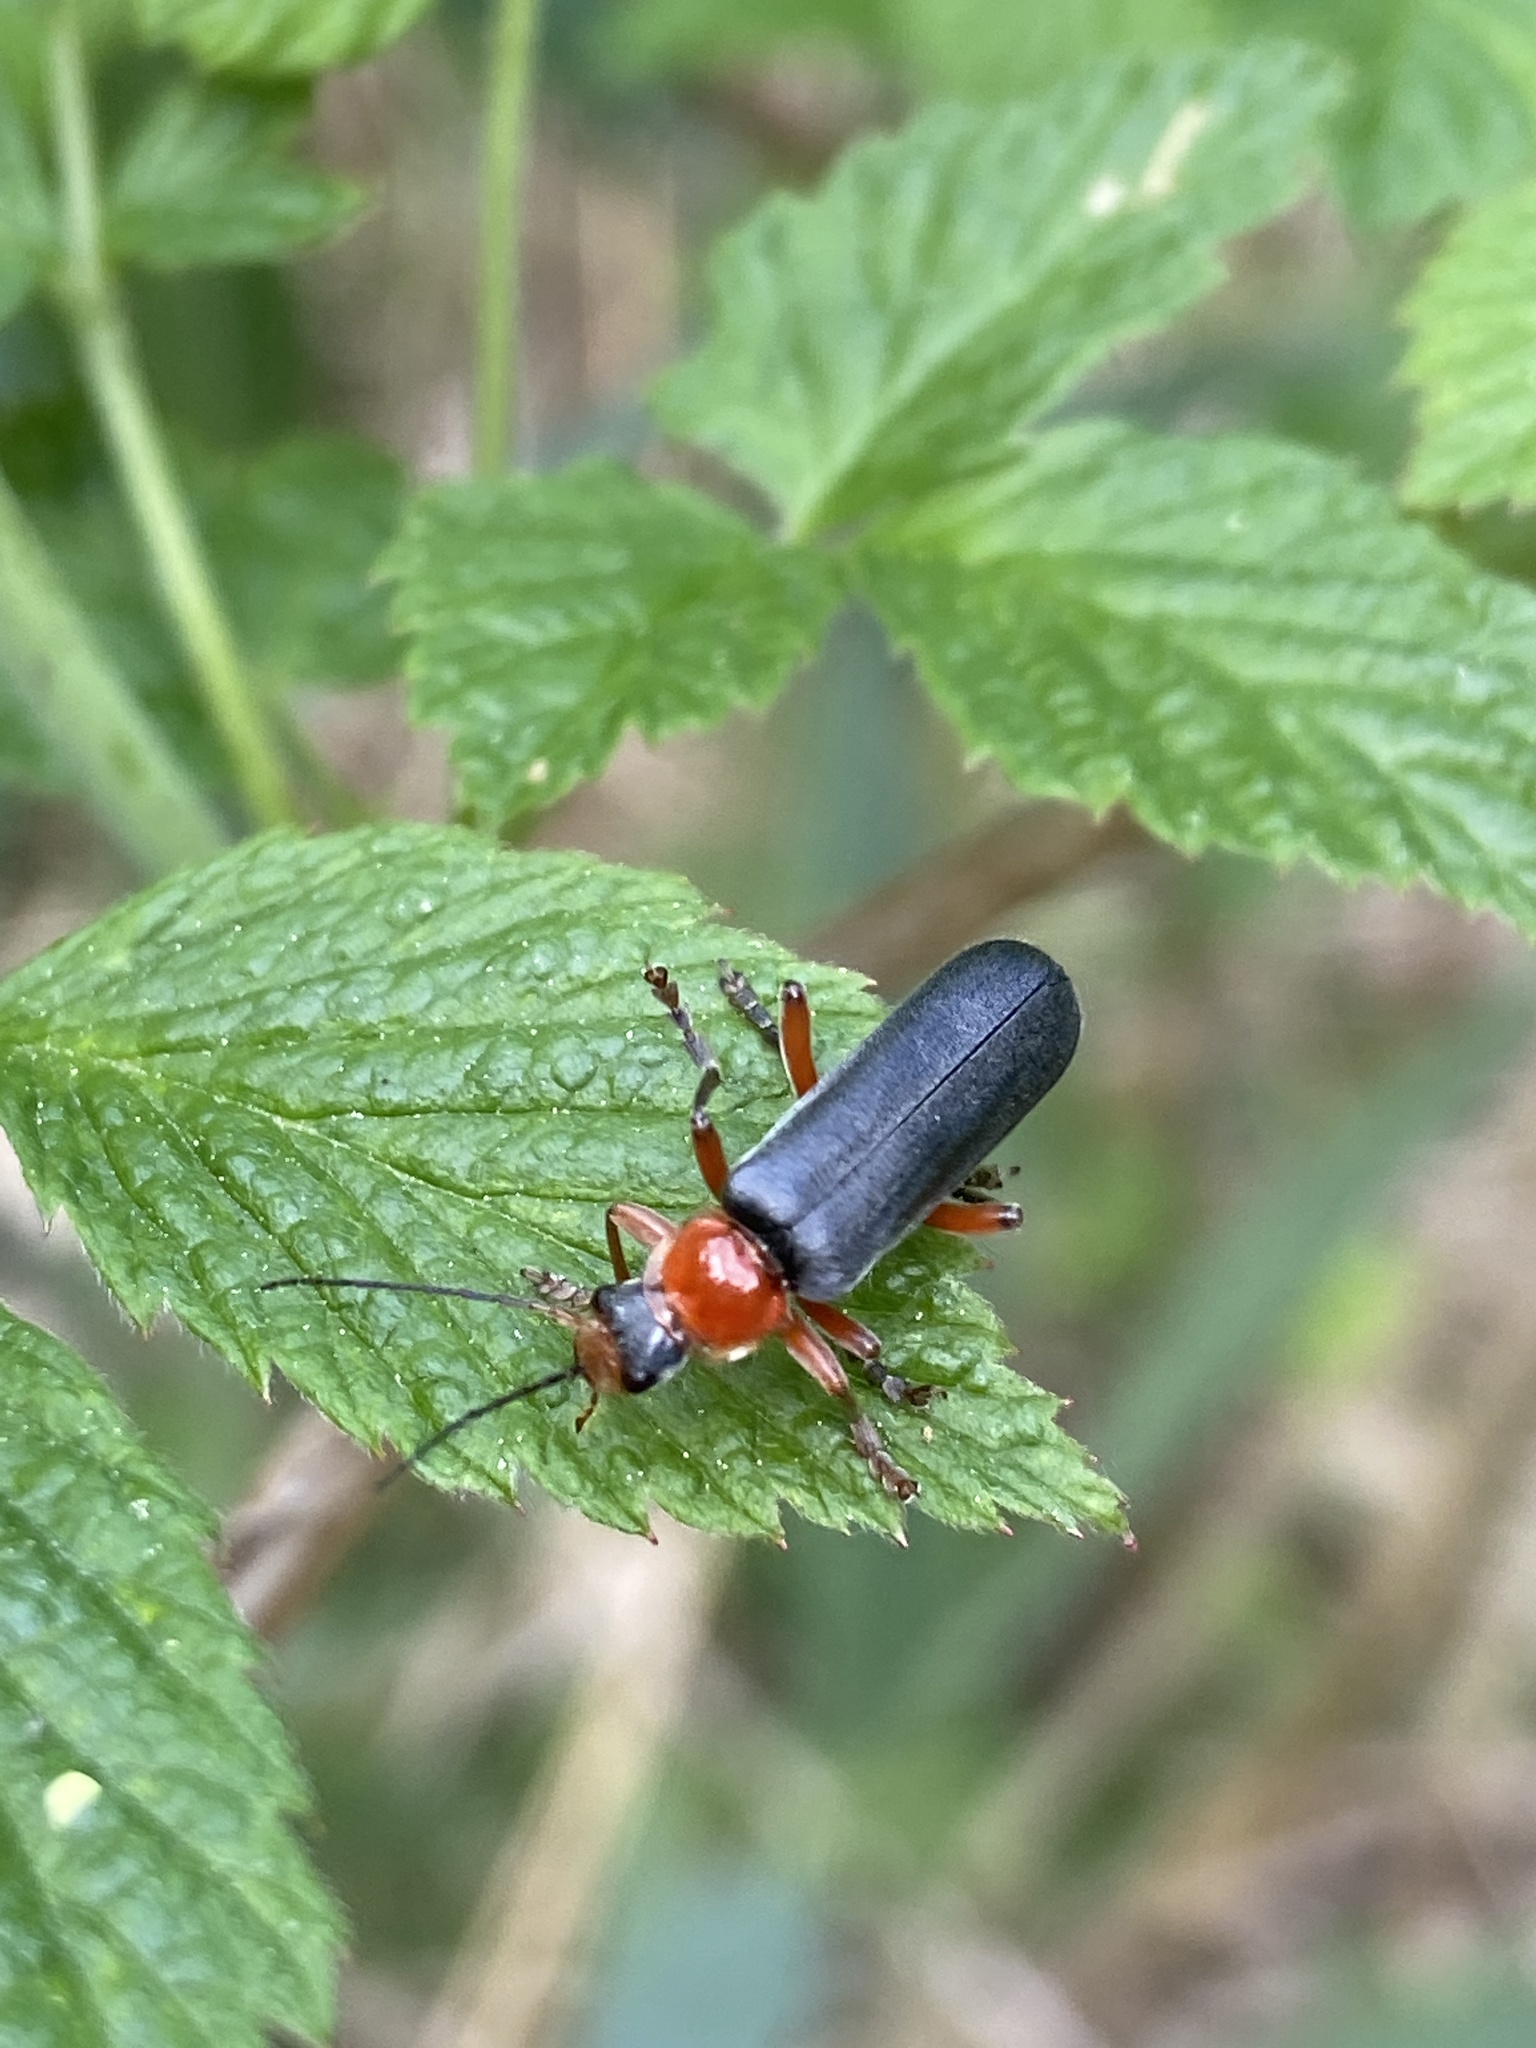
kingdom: Animalia
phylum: Arthropoda
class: Insecta
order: Coleoptera
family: Cantharidae
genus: Cantharis
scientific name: Cantharis pellucida
